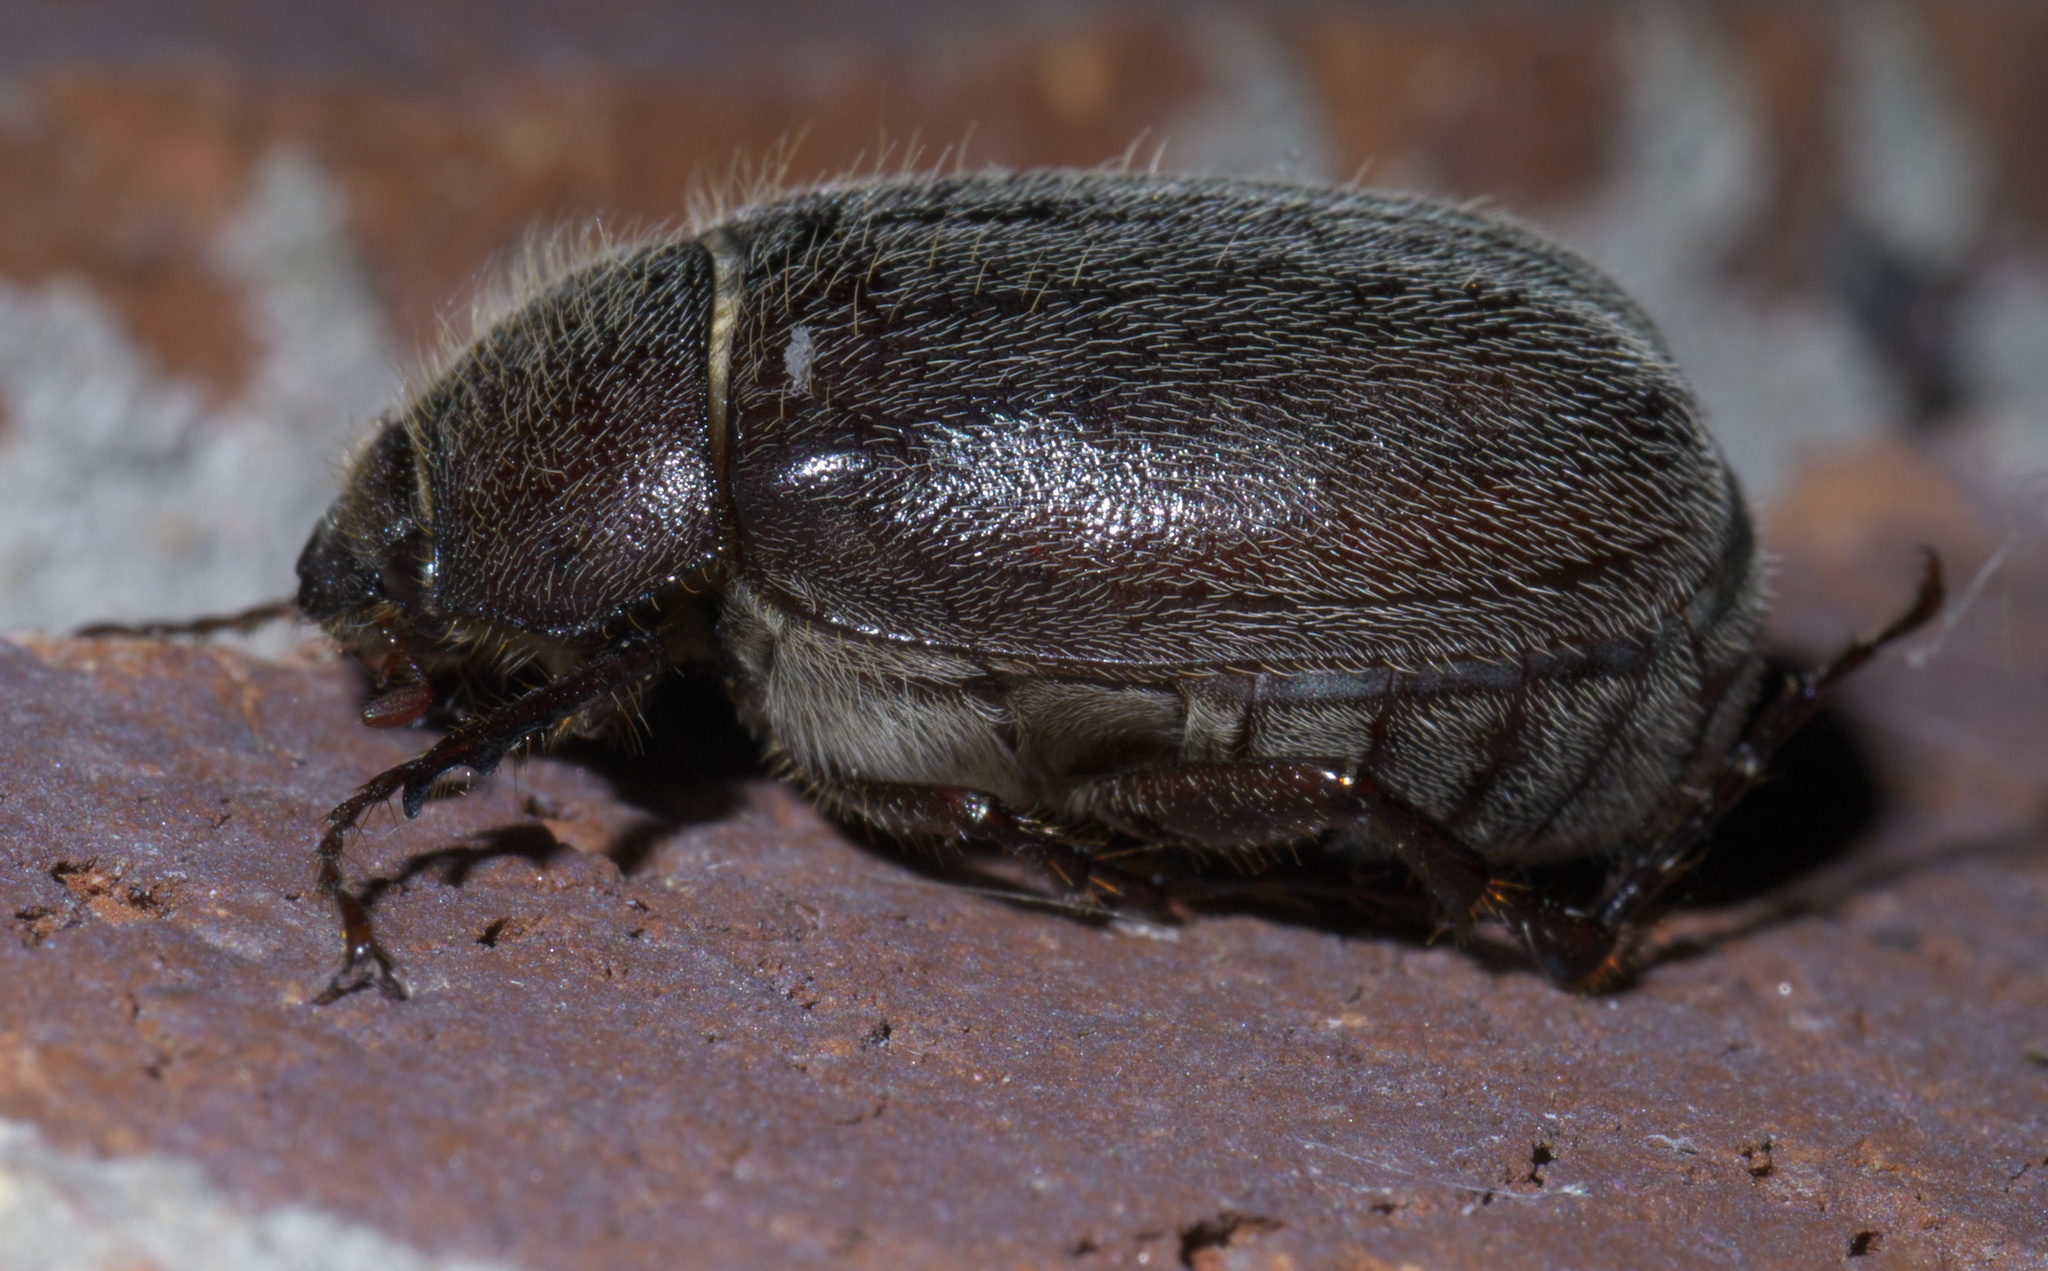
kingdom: Animalia
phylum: Arthropoda
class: Insecta
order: Coleoptera
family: Scarabaeidae
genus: Phyllophaga
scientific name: Phyllophaga crenulata
